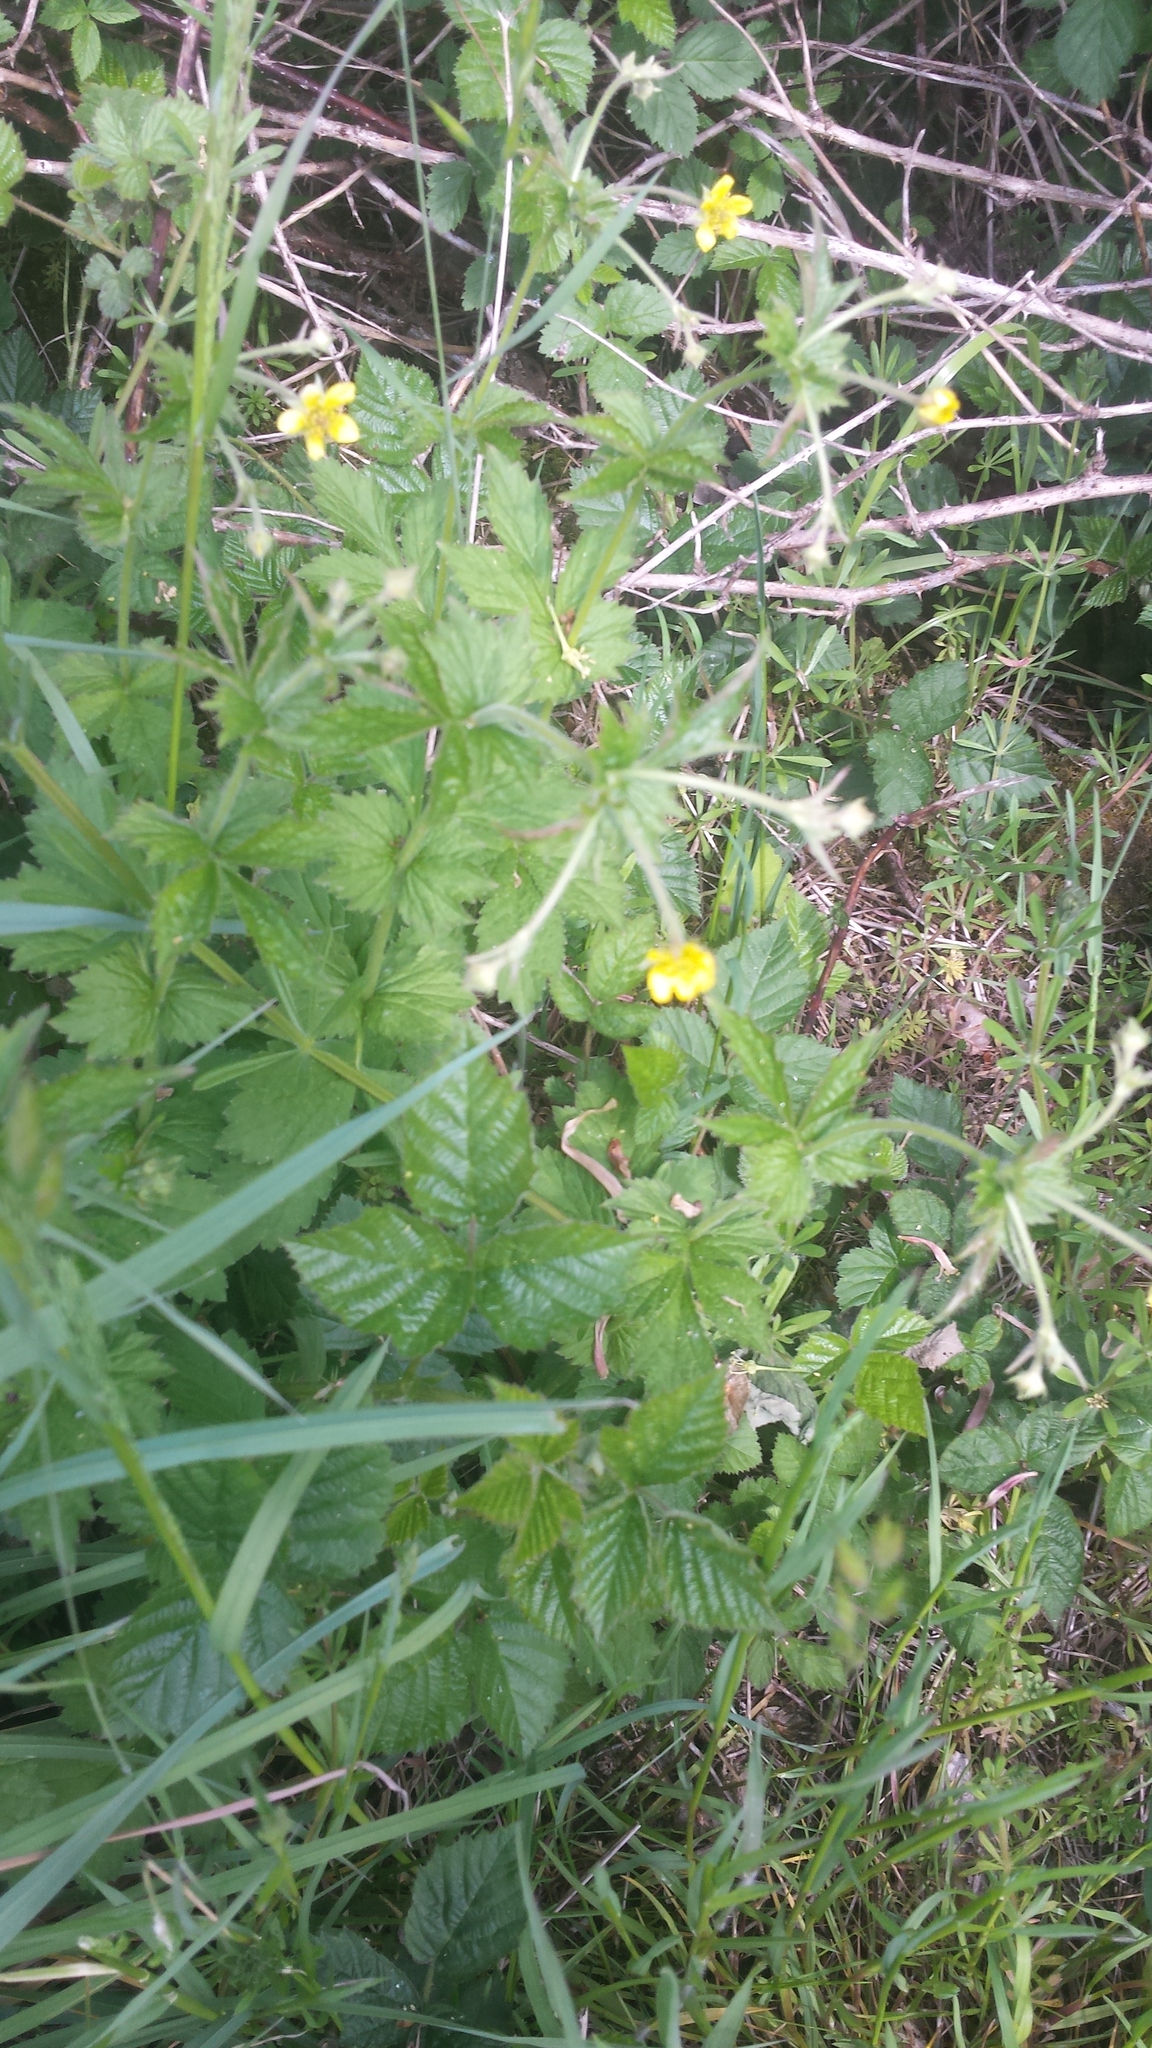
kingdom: Plantae
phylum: Tracheophyta
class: Magnoliopsida
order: Rosales
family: Rosaceae
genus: Geum
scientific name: Geum urbanum
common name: Wood avens
